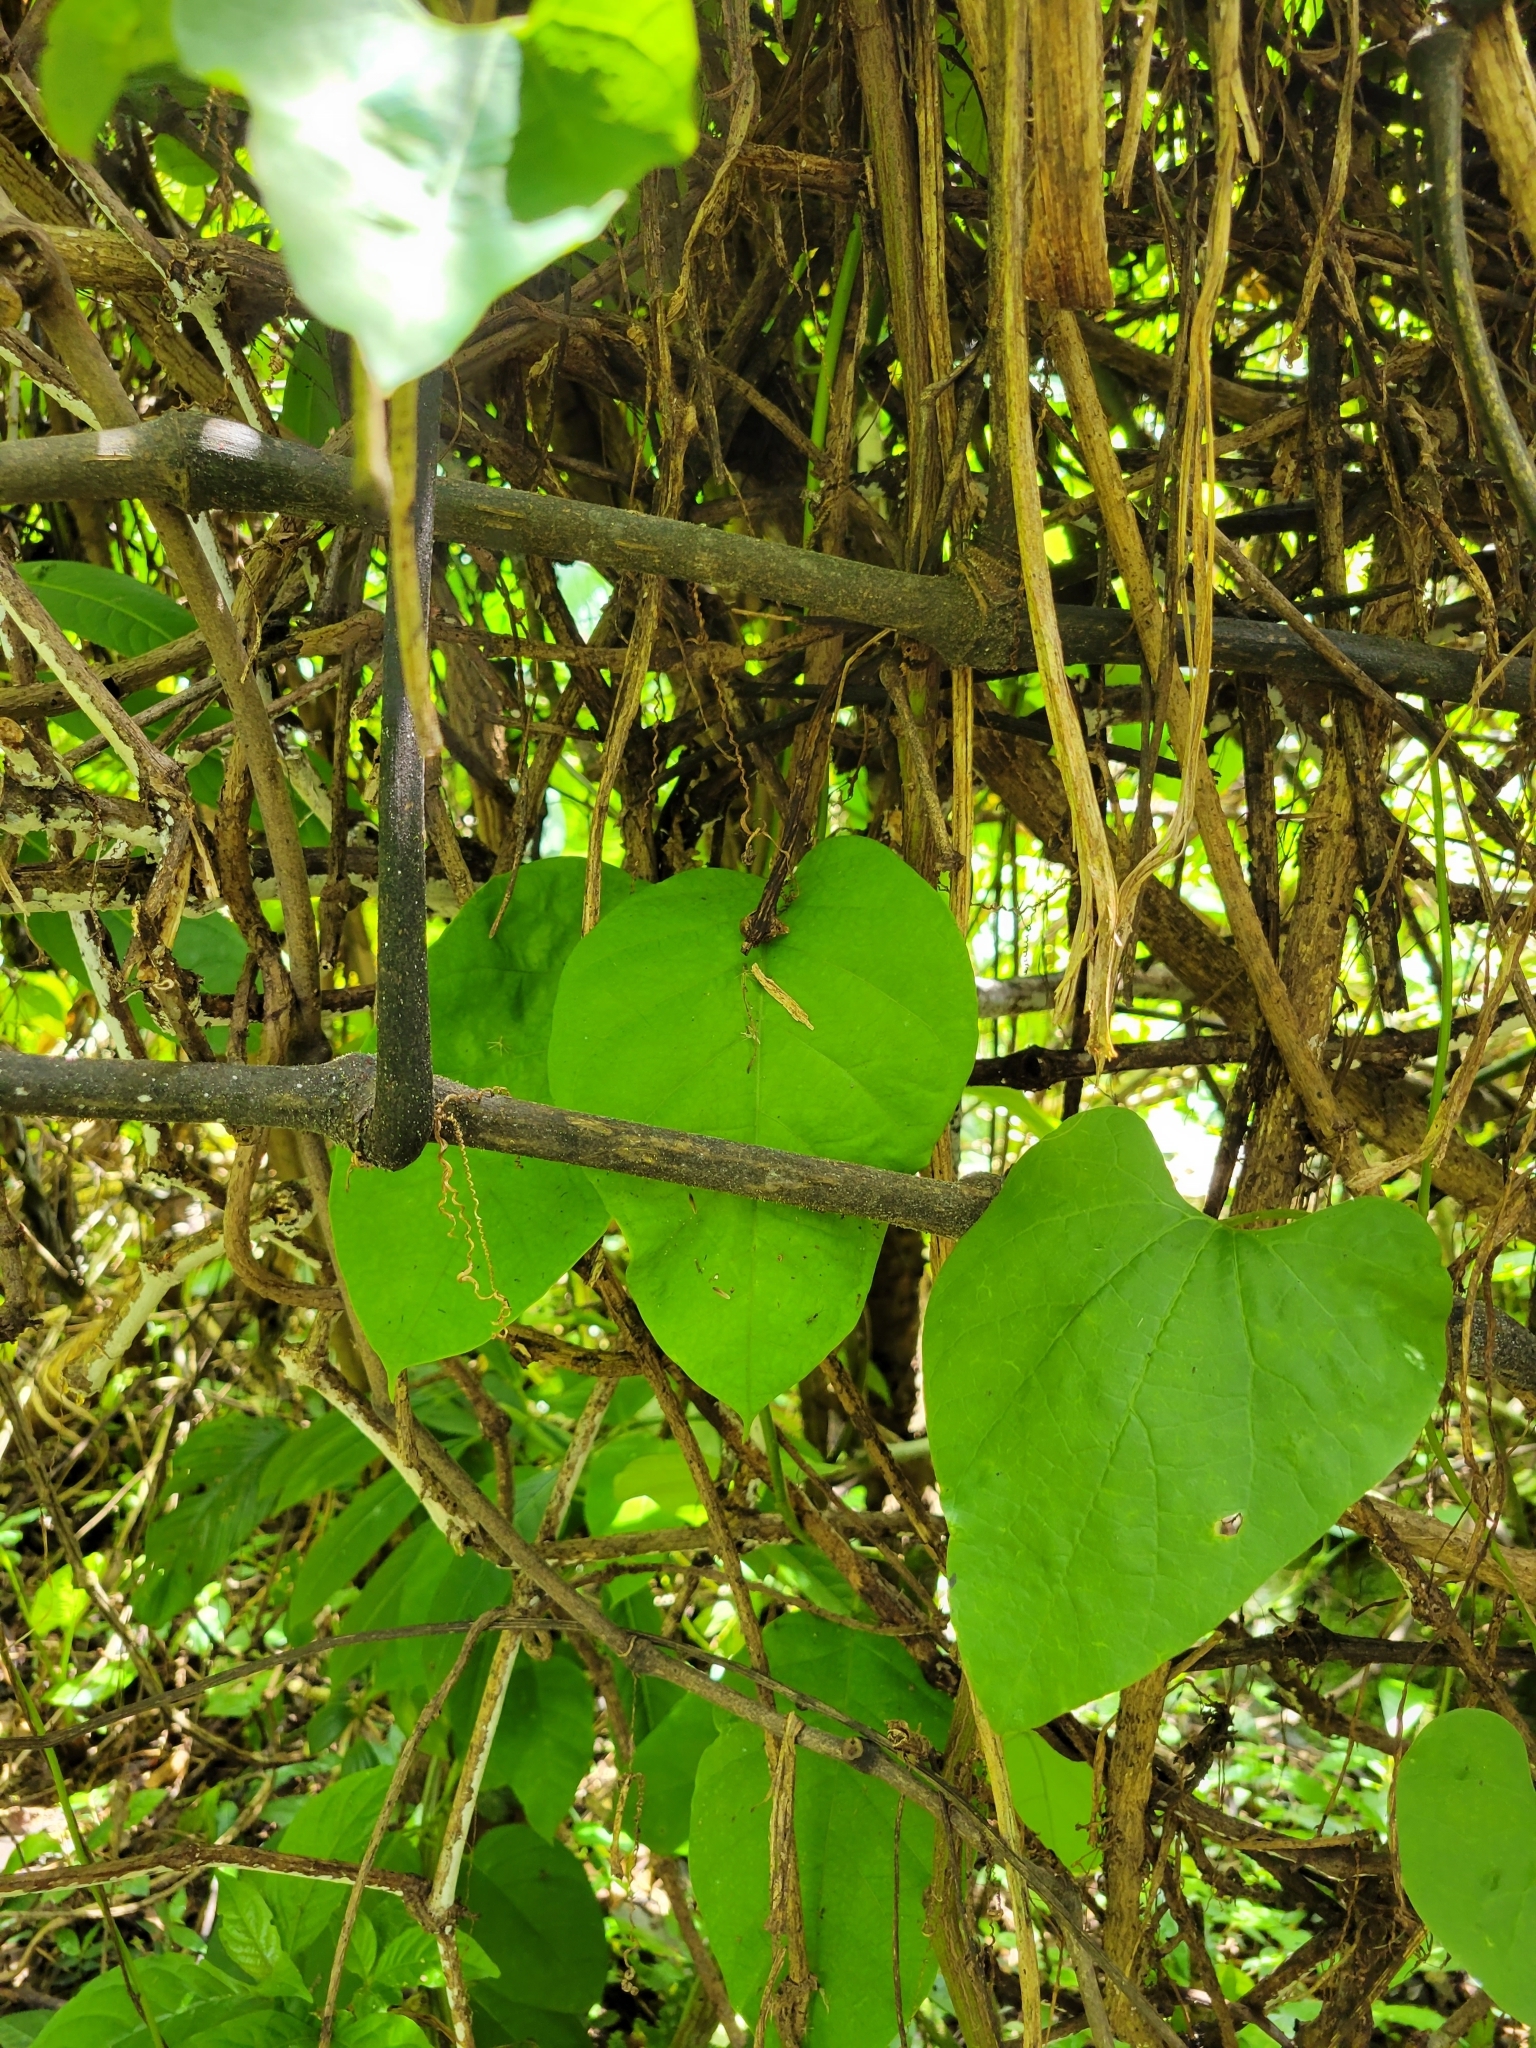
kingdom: Plantae
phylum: Tracheophyta
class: Magnoliopsida
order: Piperales
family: Aristolochiaceae
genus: Aristolochia
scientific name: Aristolochia grandiflora
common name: Pelicanflower
